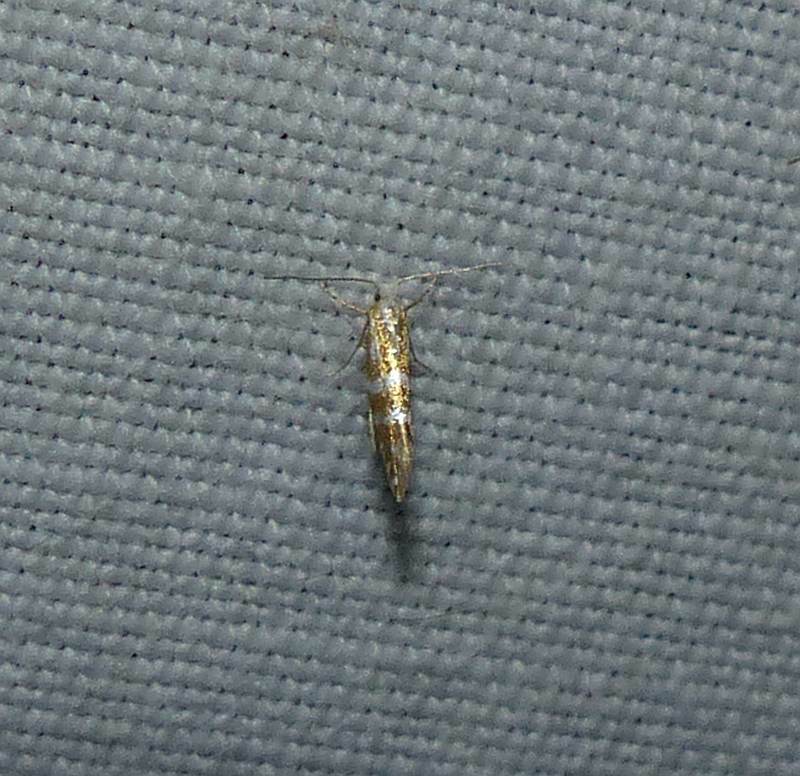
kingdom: Animalia
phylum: Arthropoda
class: Insecta
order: Lepidoptera
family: Argyresthiidae
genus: Argyresthia
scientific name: Argyresthia aureoargentella
